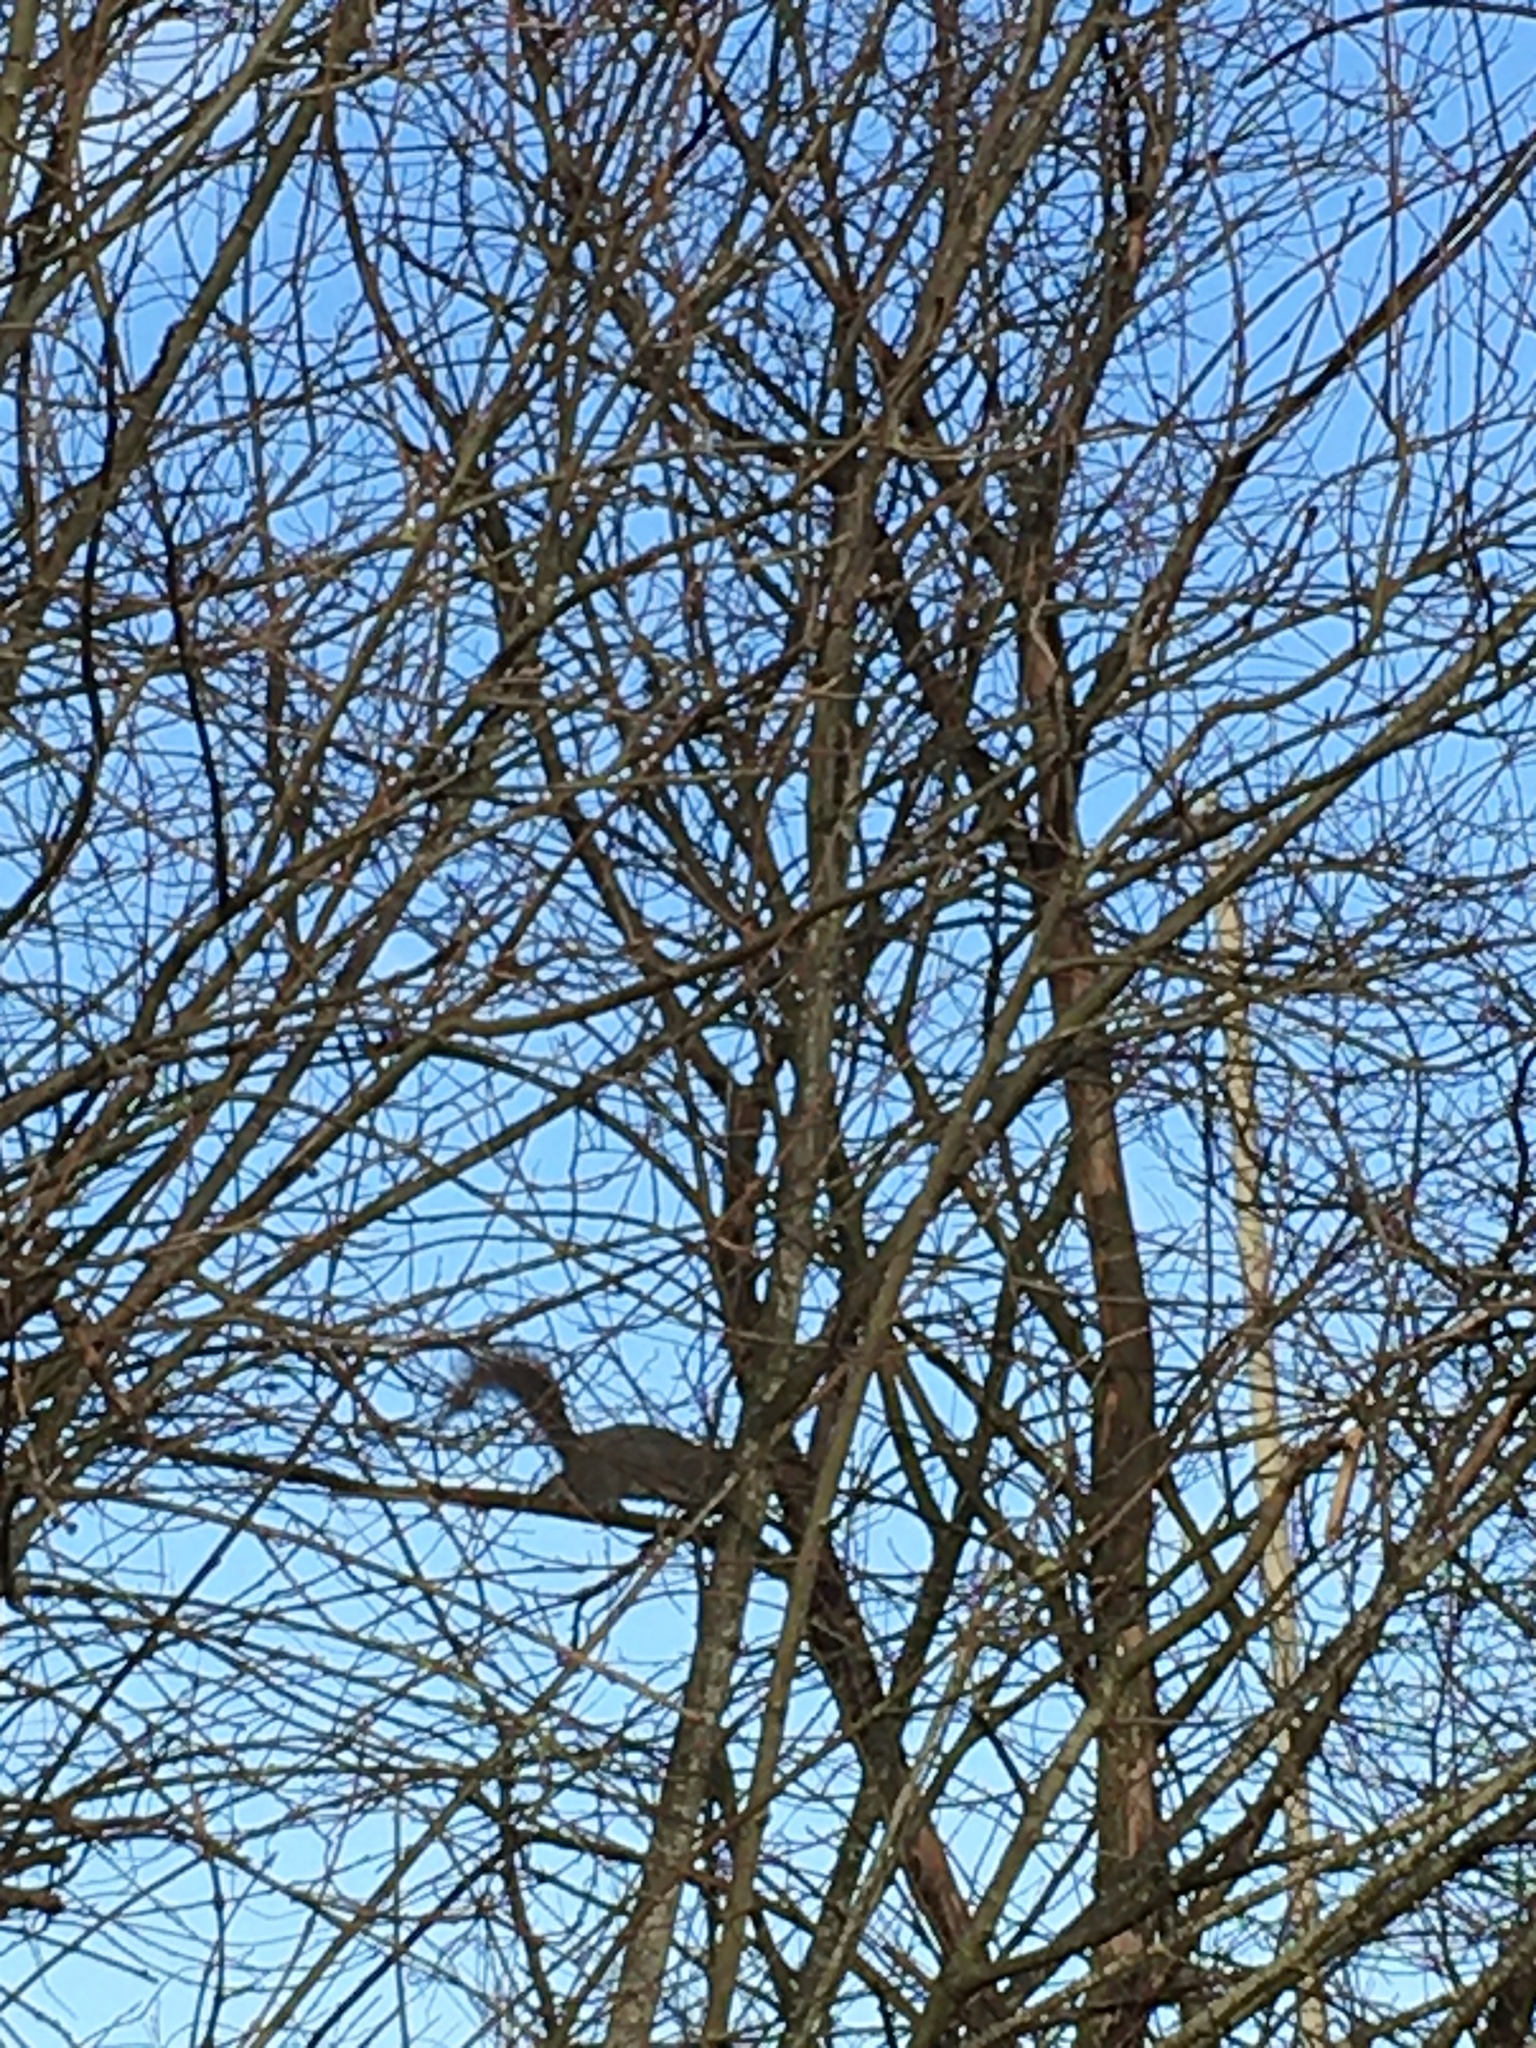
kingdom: Animalia
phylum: Chordata
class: Mammalia
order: Rodentia
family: Sciuridae
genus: Sciurus
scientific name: Sciurus carolinensis
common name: Eastern gray squirrel
